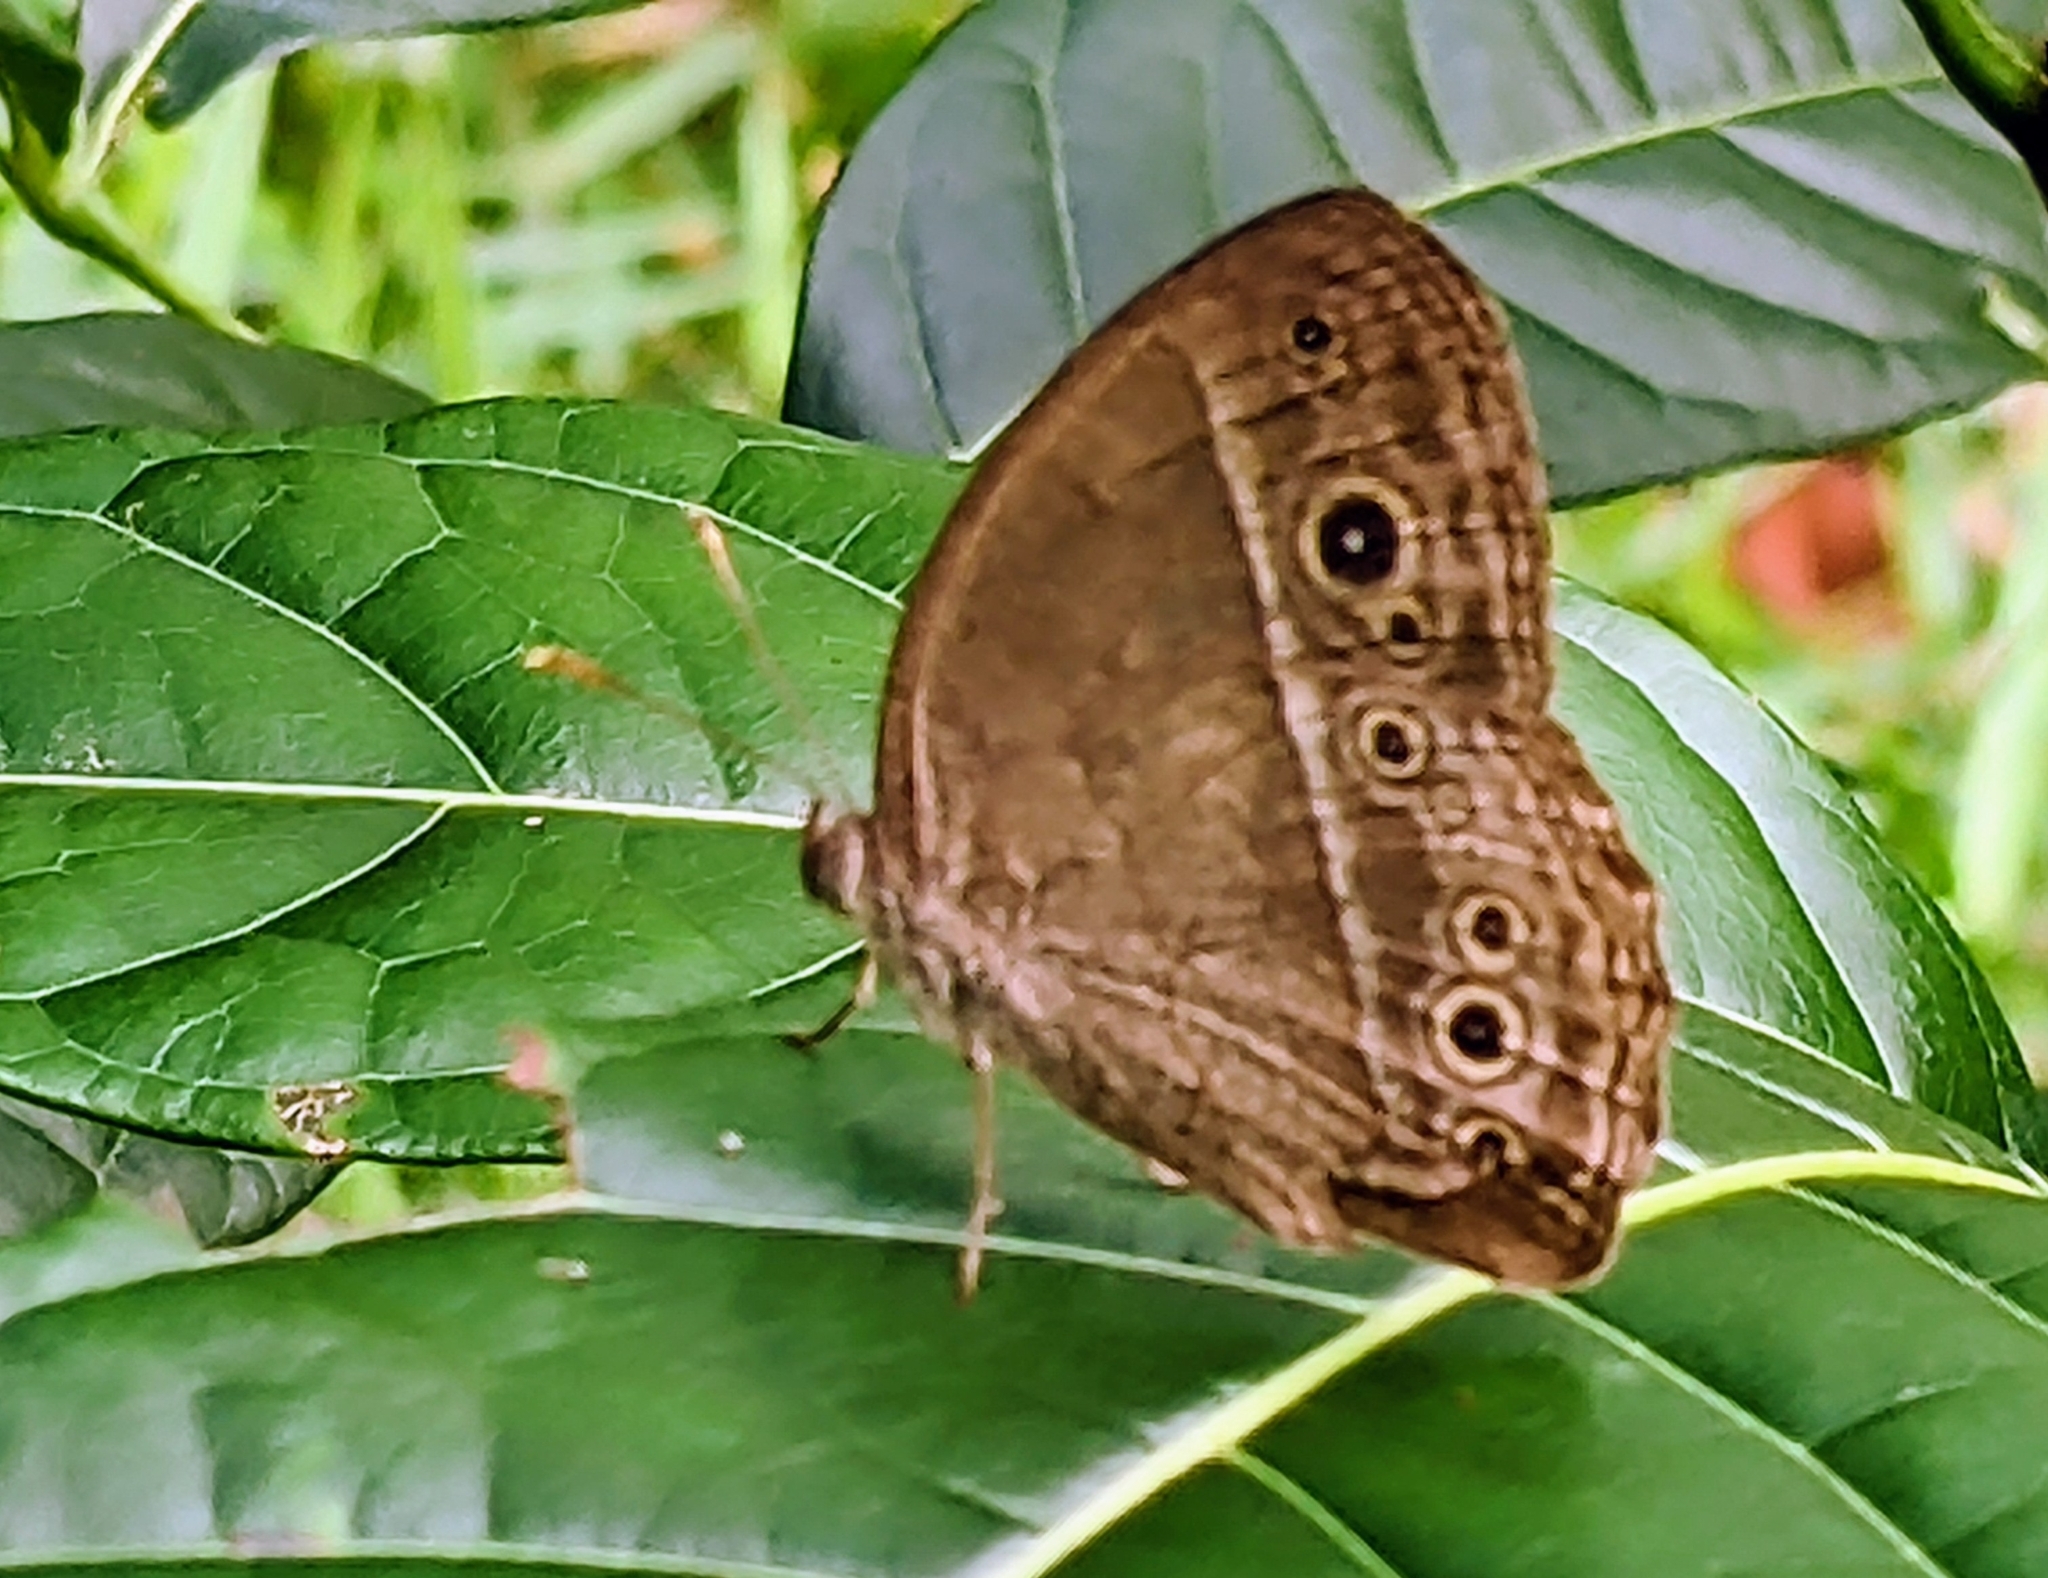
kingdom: Animalia
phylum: Arthropoda
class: Insecta
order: Lepidoptera
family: Nymphalidae
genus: Mycalesis
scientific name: Mycalesis perseoides
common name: Burmese bushbrown
